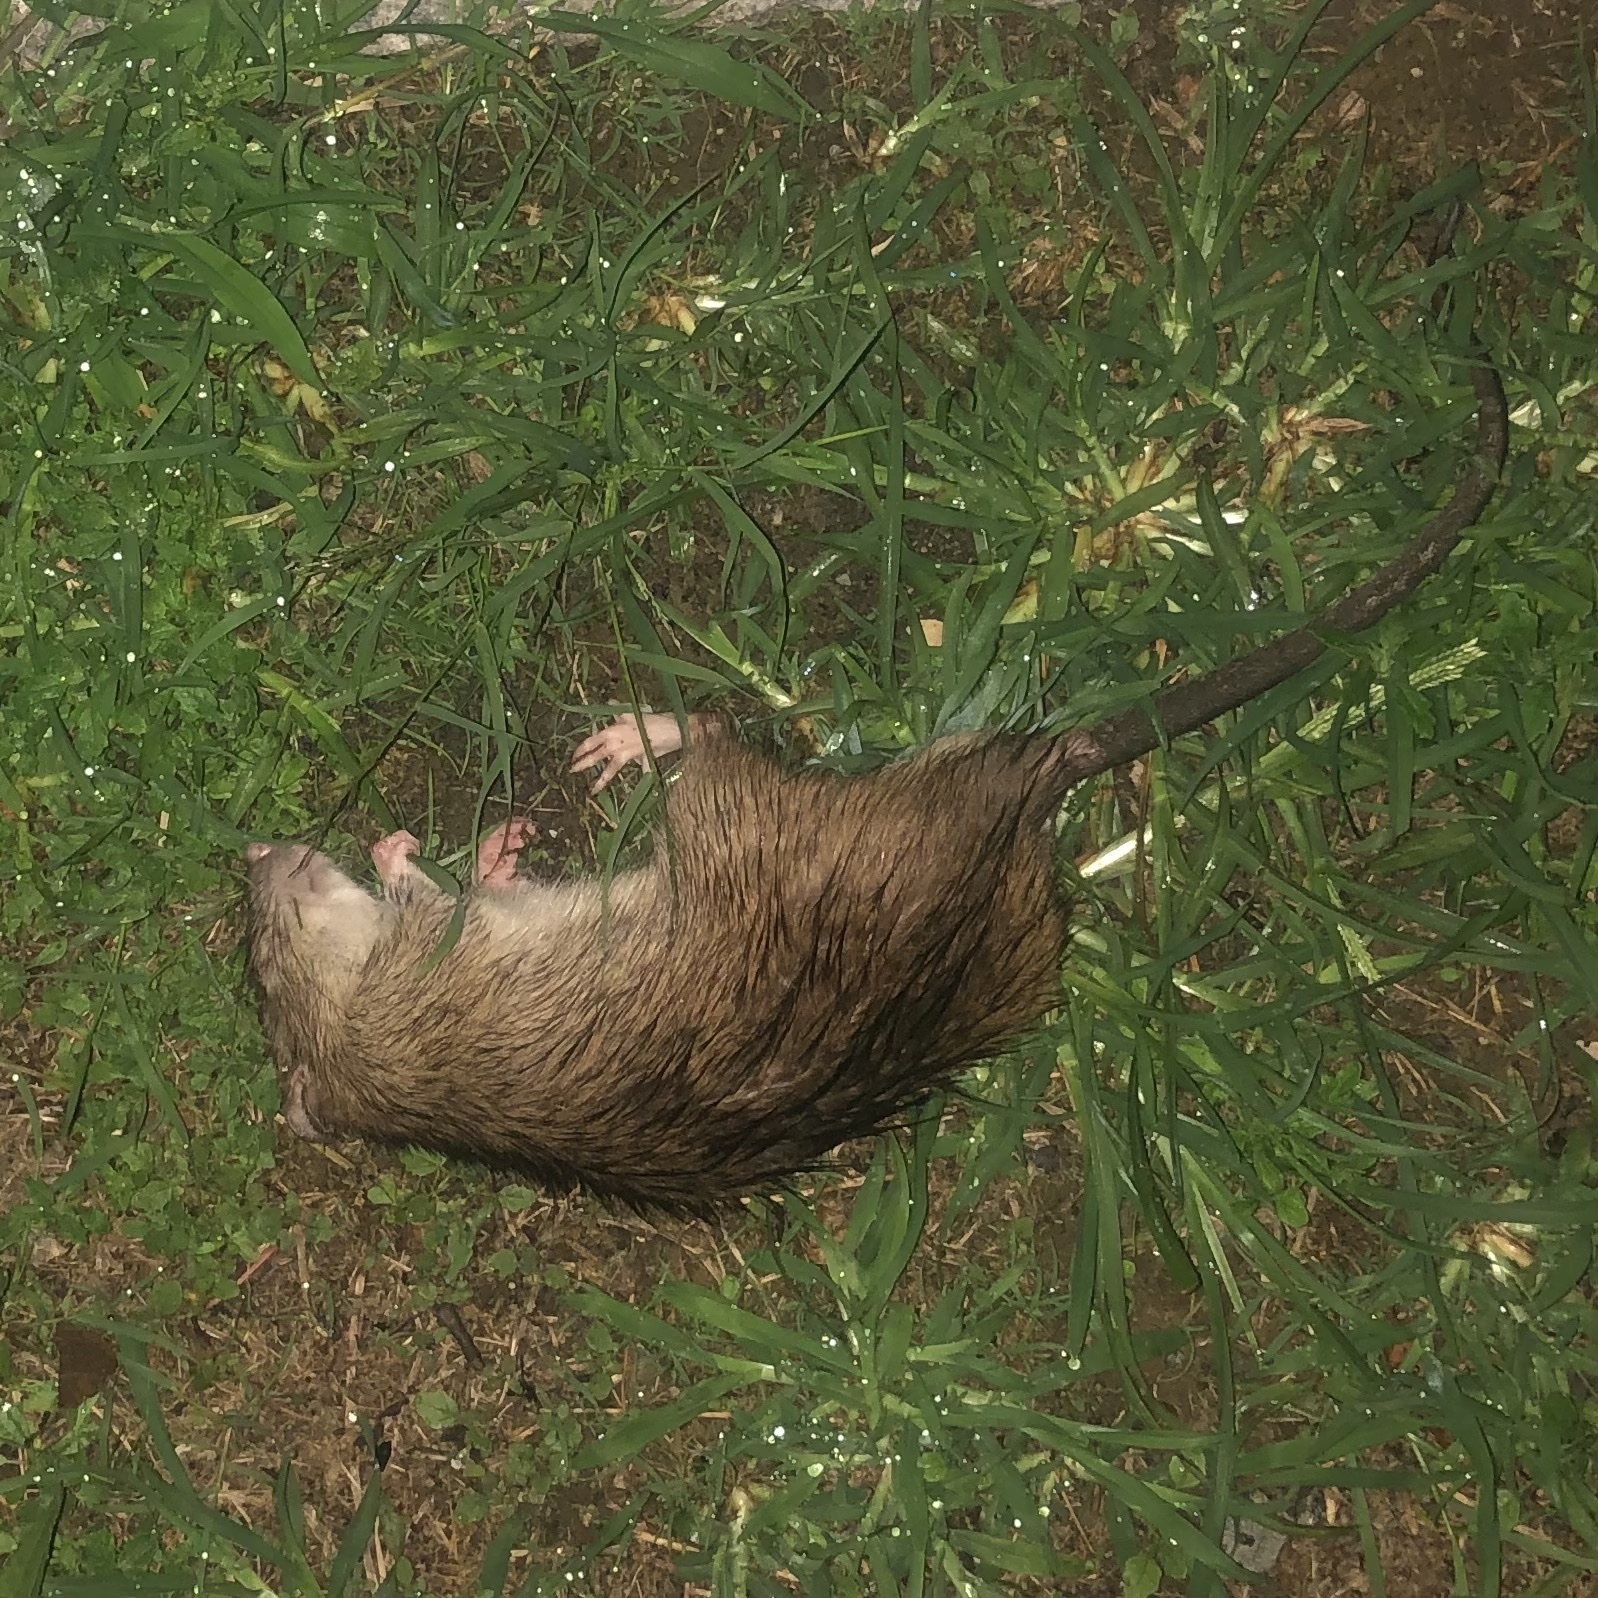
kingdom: Animalia
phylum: Chordata
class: Mammalia
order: Rodentia
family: Muridae
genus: Rattus
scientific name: Rattus norvegicus
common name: Brown rat
